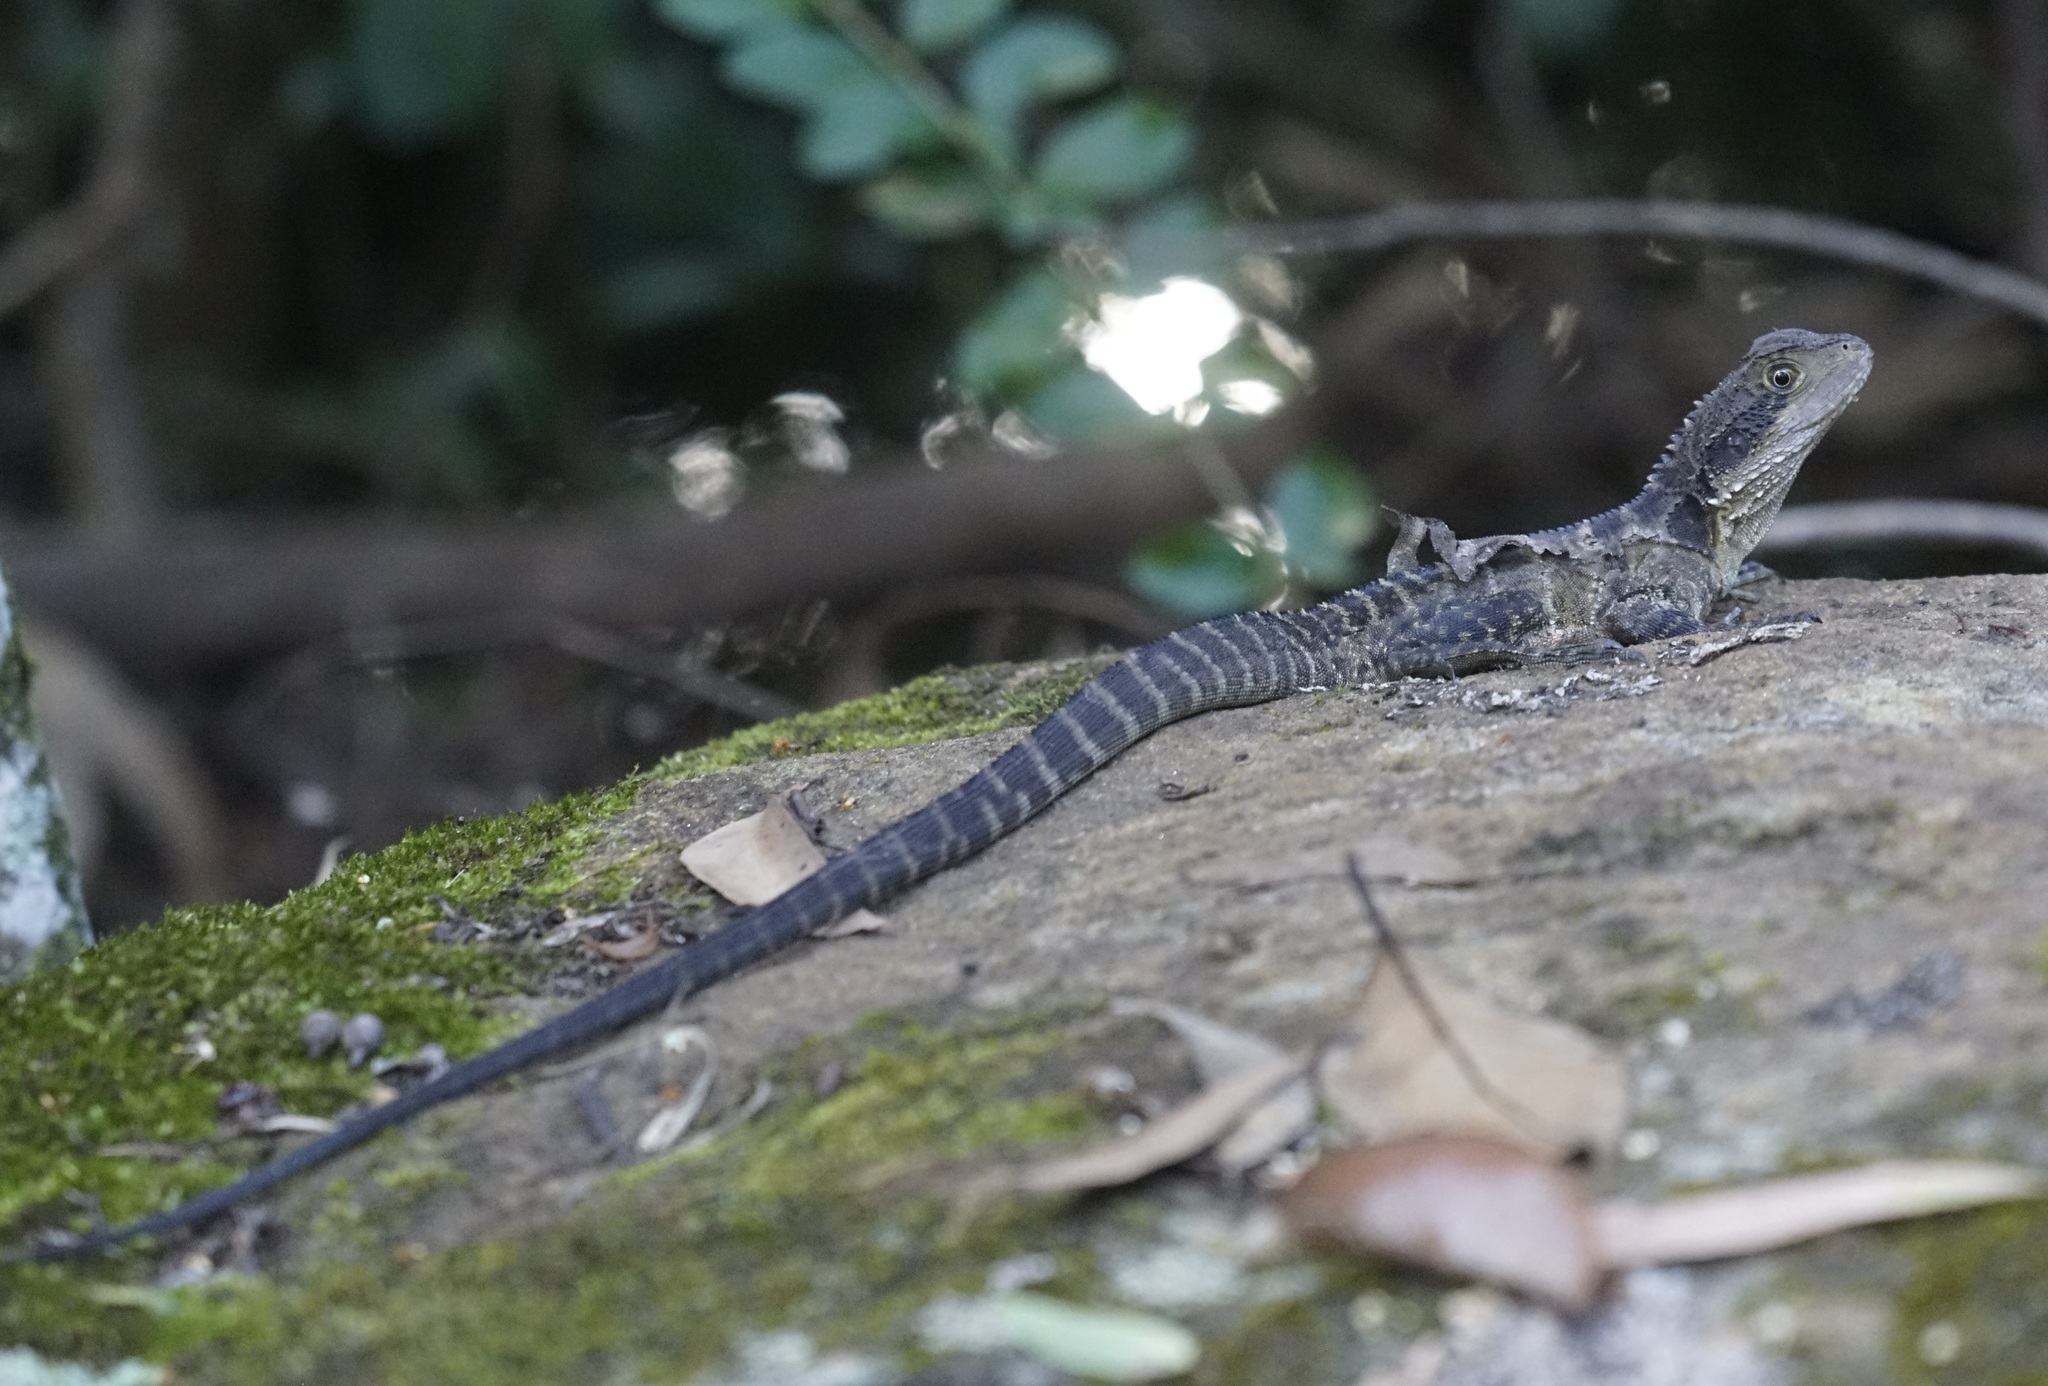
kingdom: Animalia
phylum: Chordata
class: Squamata
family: Agamidae
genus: Intellagama
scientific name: Intellagama lesueurii
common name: Eastern water dragon
